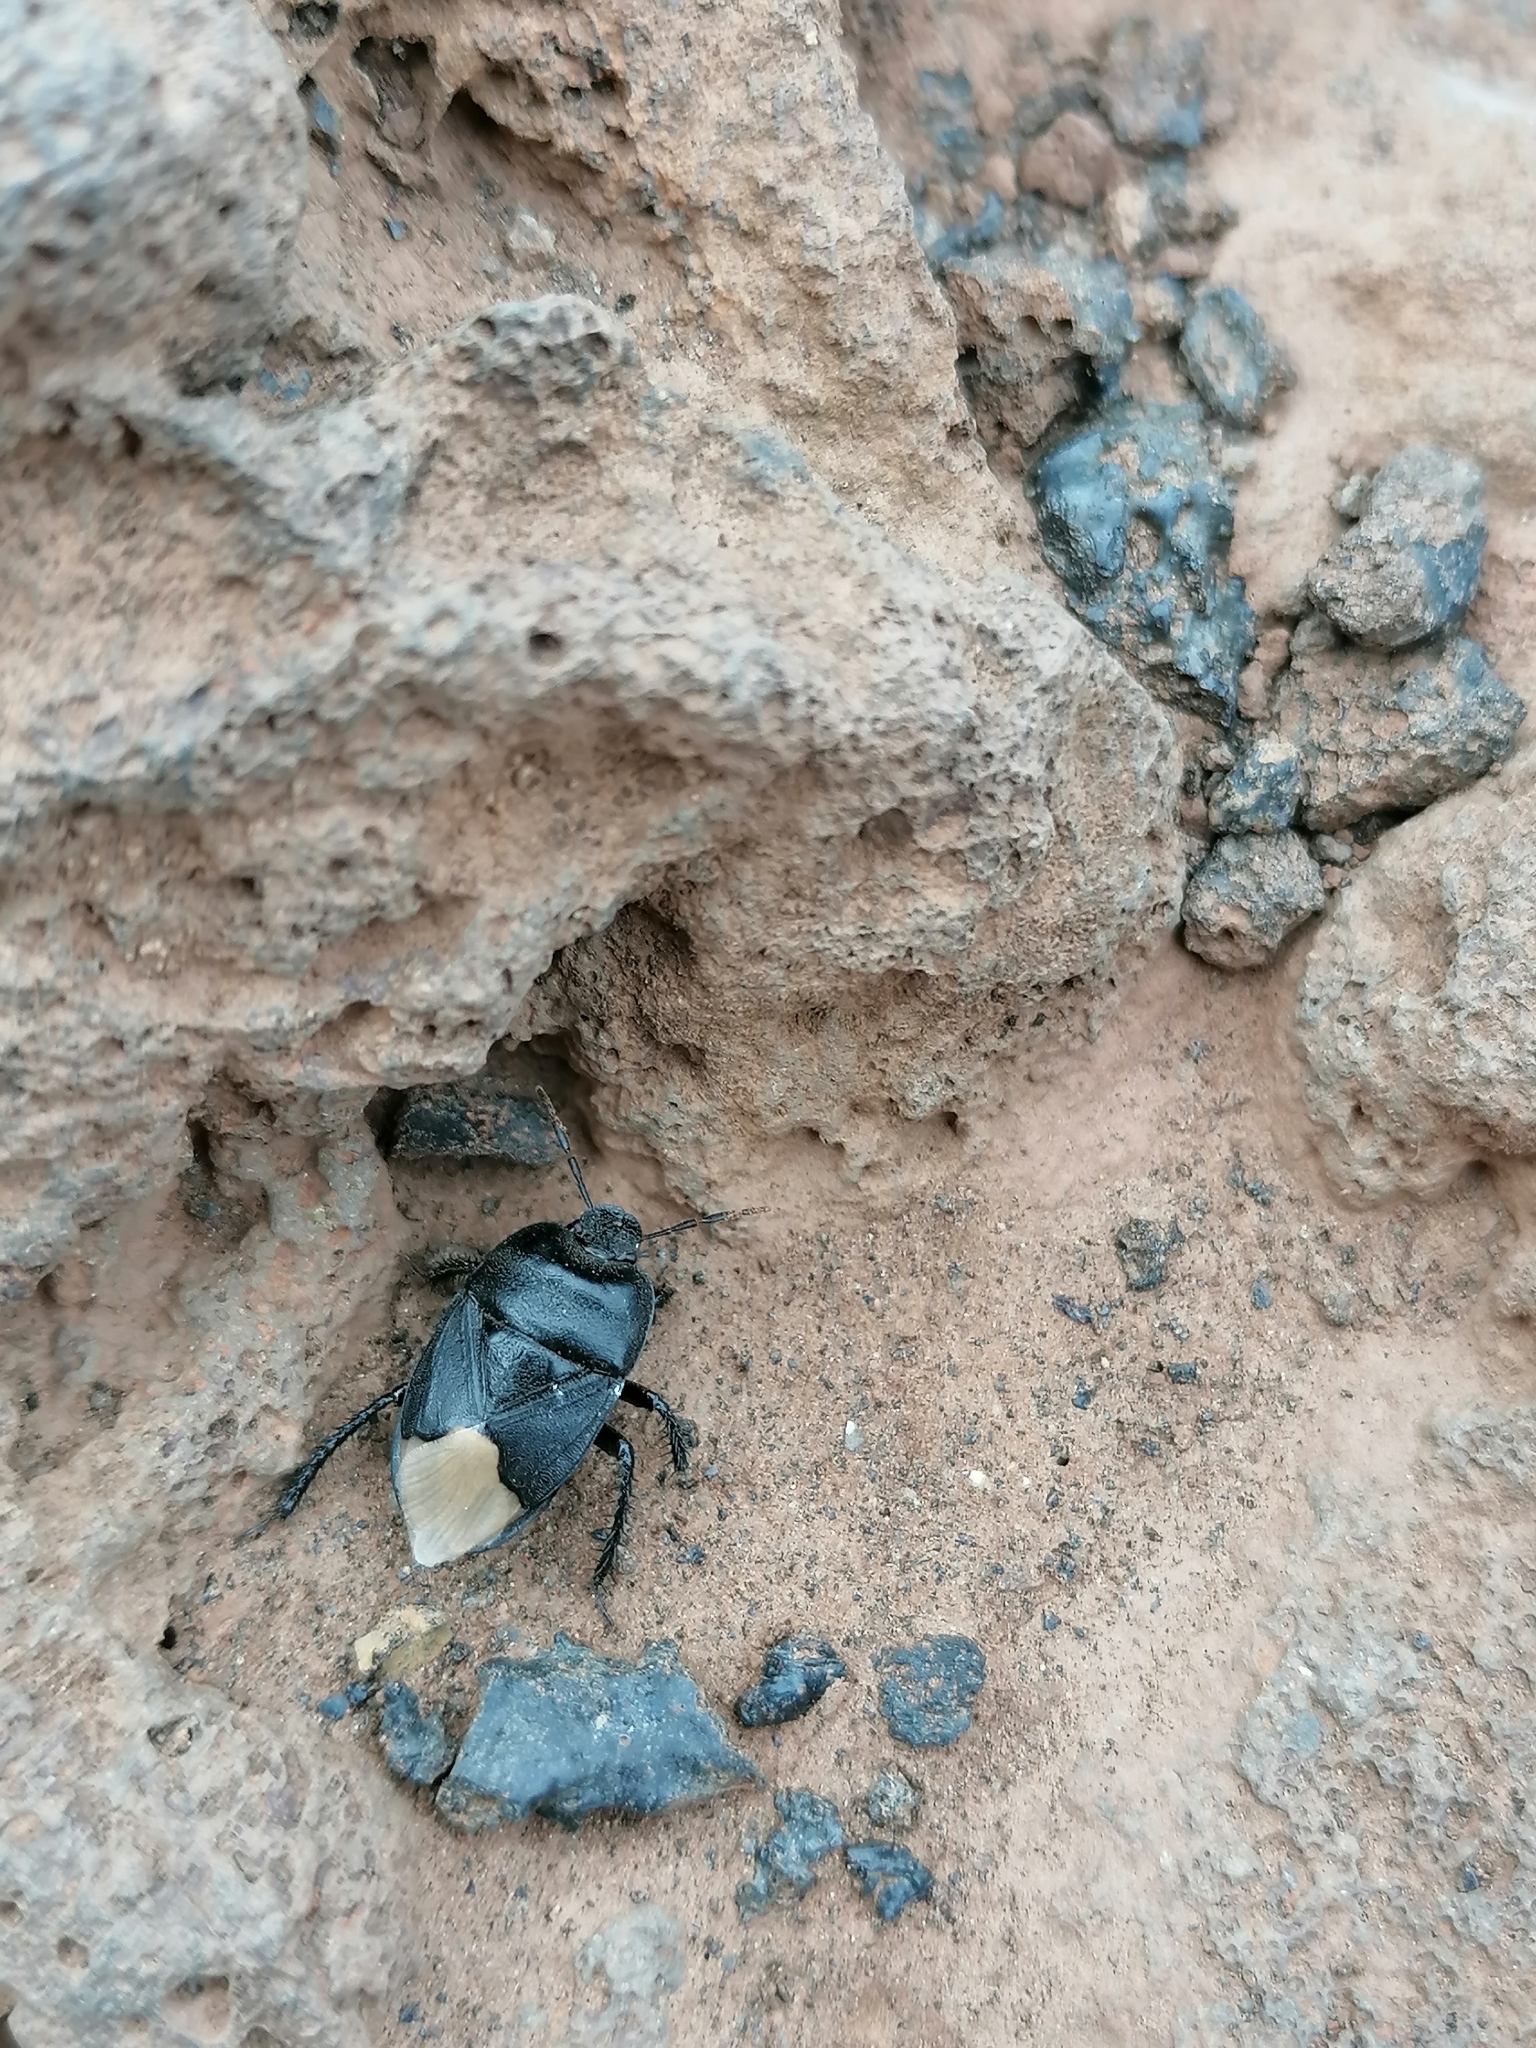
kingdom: Animalia
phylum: Arthropoda
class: Insecta
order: Hemiptera
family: Cydnidae
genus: Cydnus
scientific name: Cydnus aterrimus
